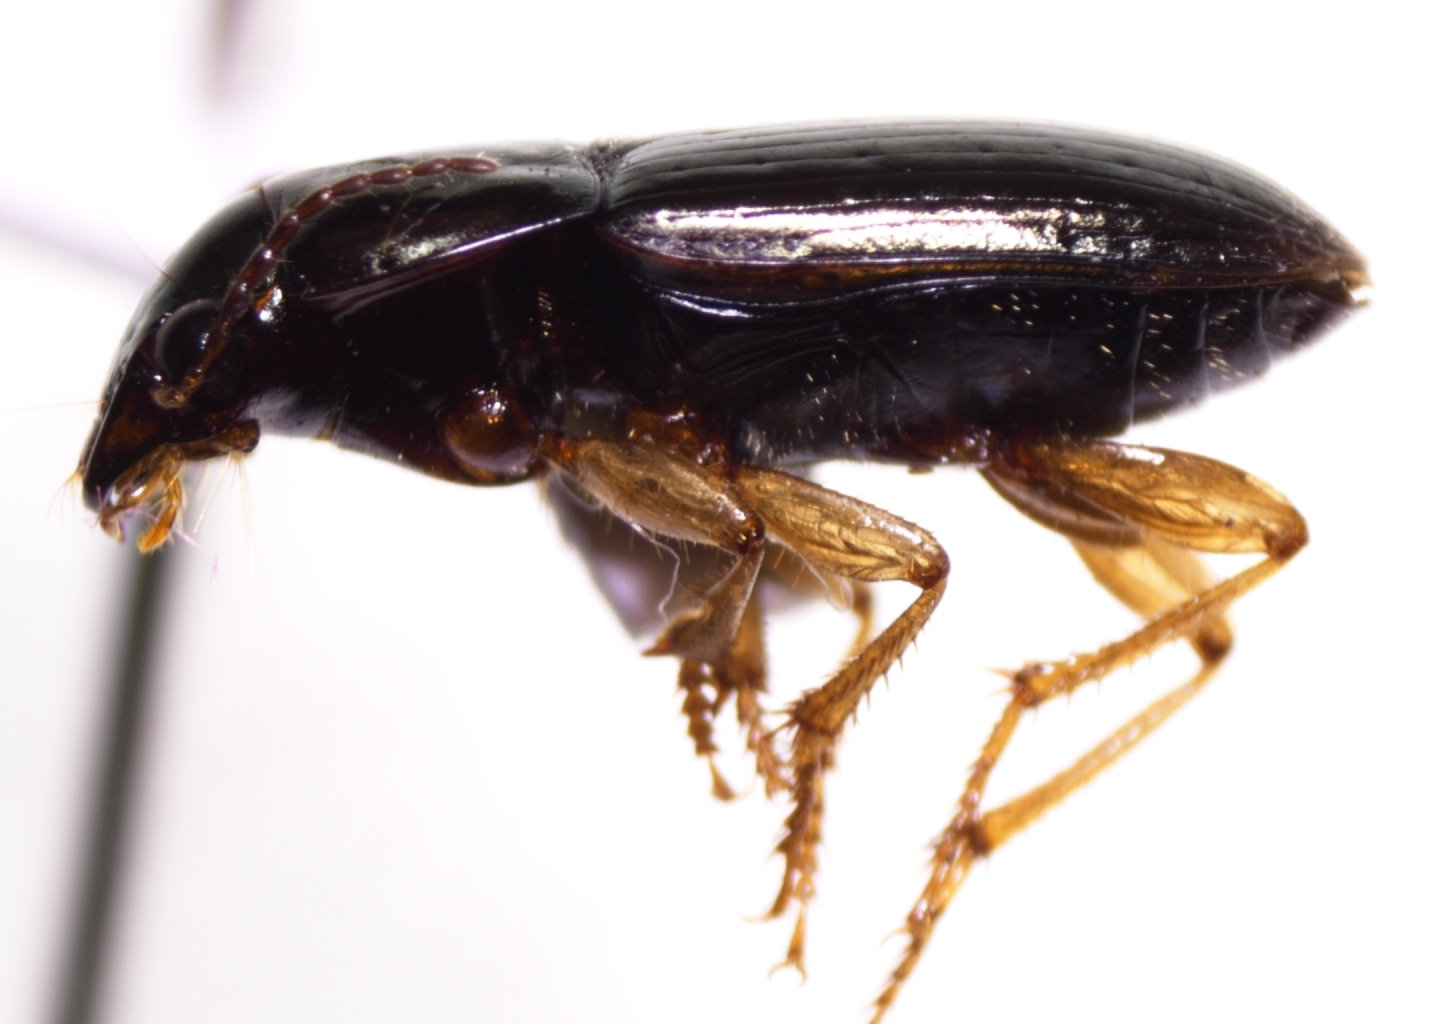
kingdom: Animalia
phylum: Arthropoda
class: Insecta
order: Coleoptera
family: Carabidae
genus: Selenophorus
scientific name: Selenophorus pyritosus
